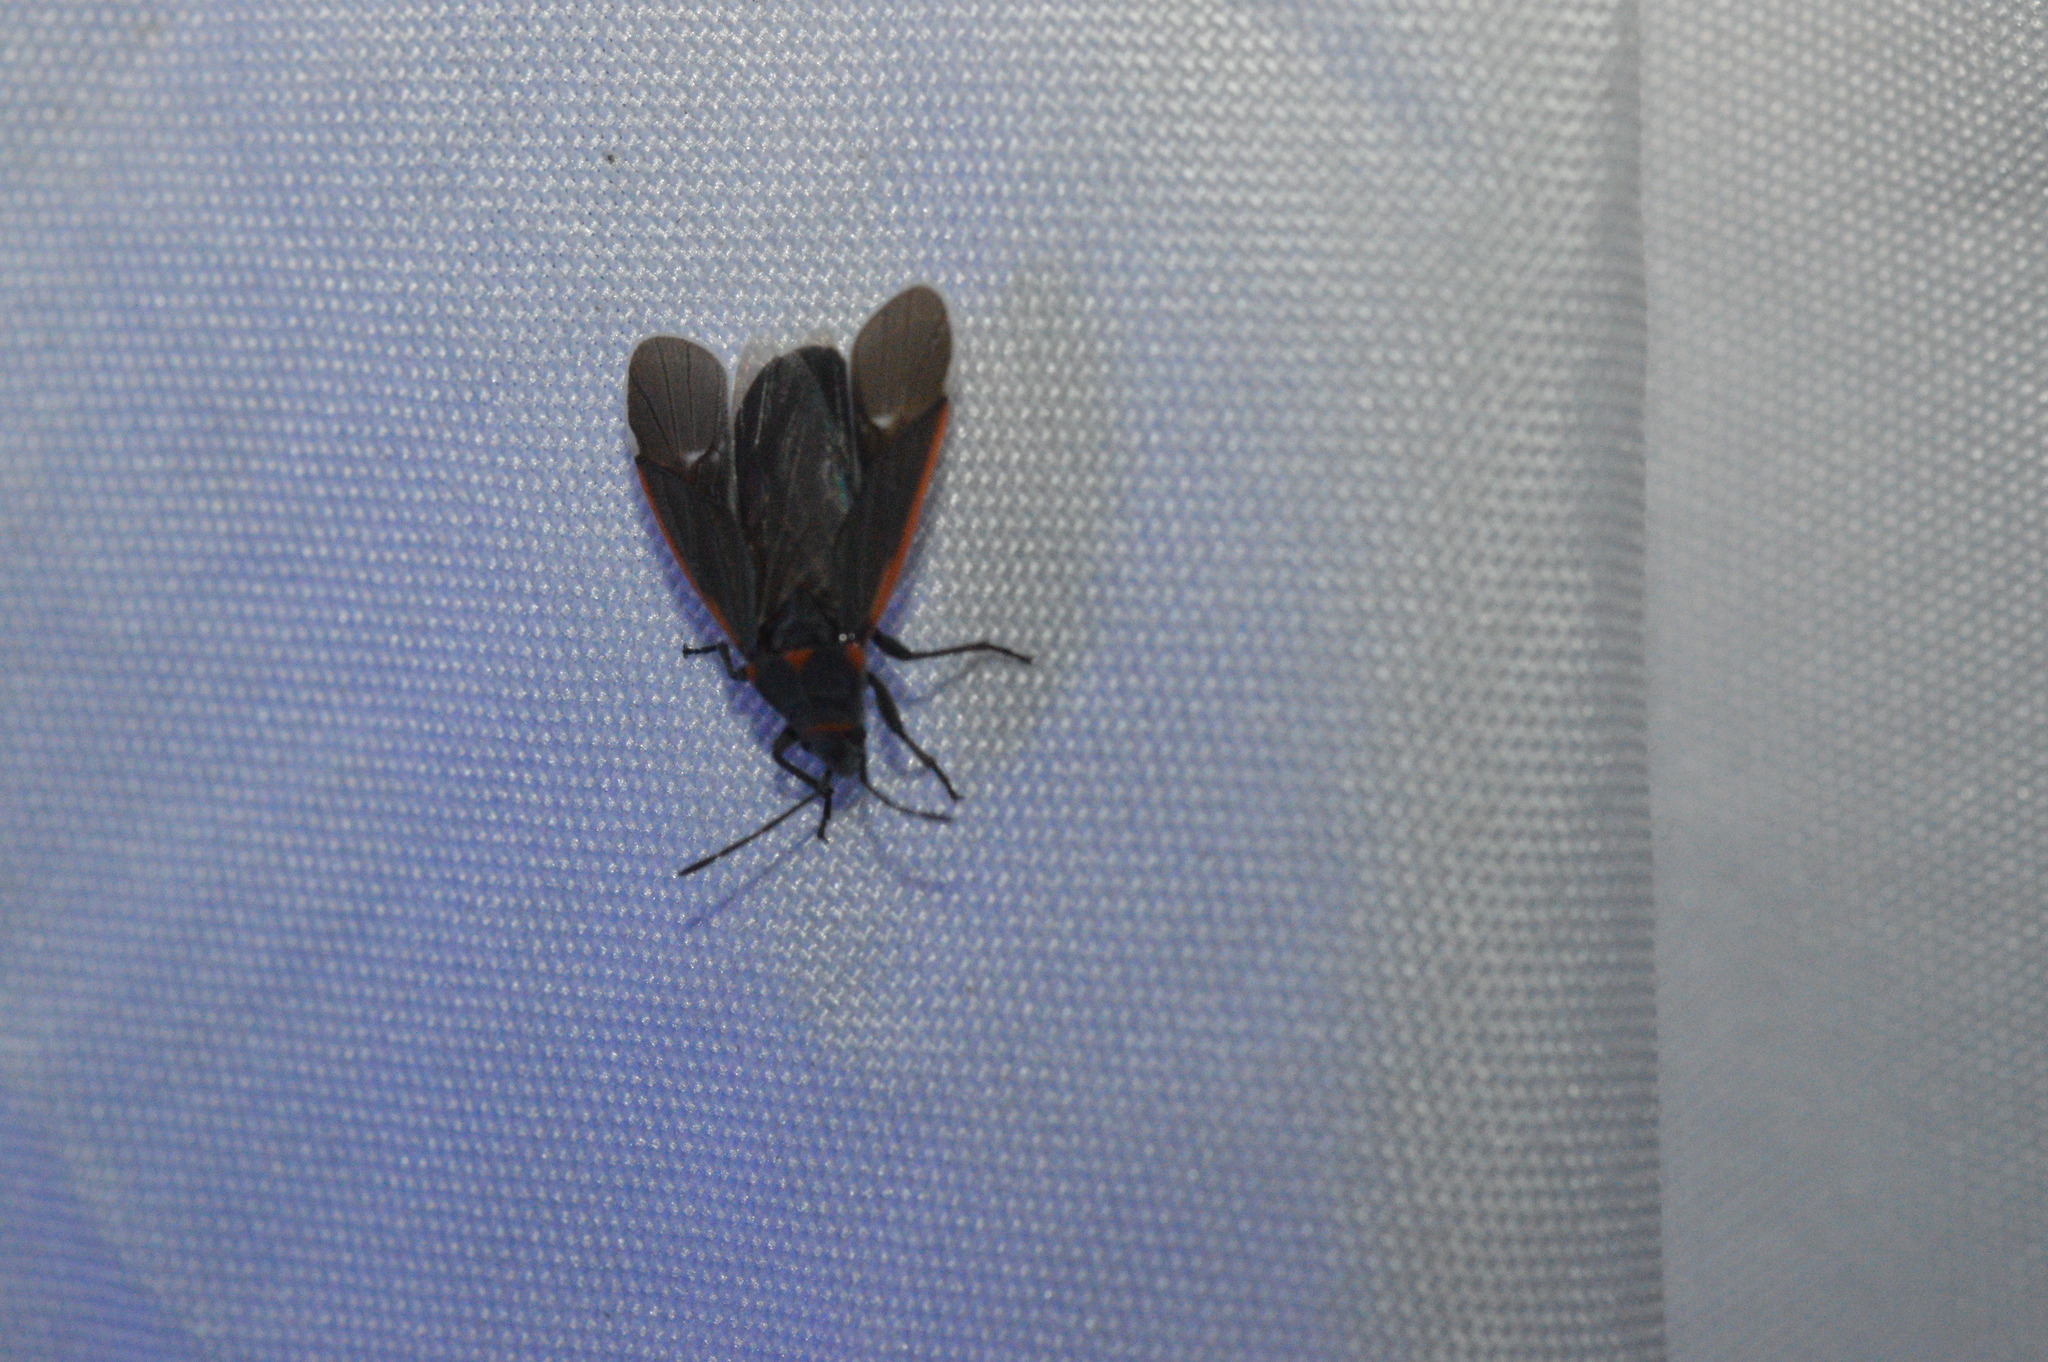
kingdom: Animalia
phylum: Arthropoda
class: Insecta
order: Hemiptera
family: Lygaeidae
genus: Melacoryphus
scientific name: Melacoryphus lateralis
